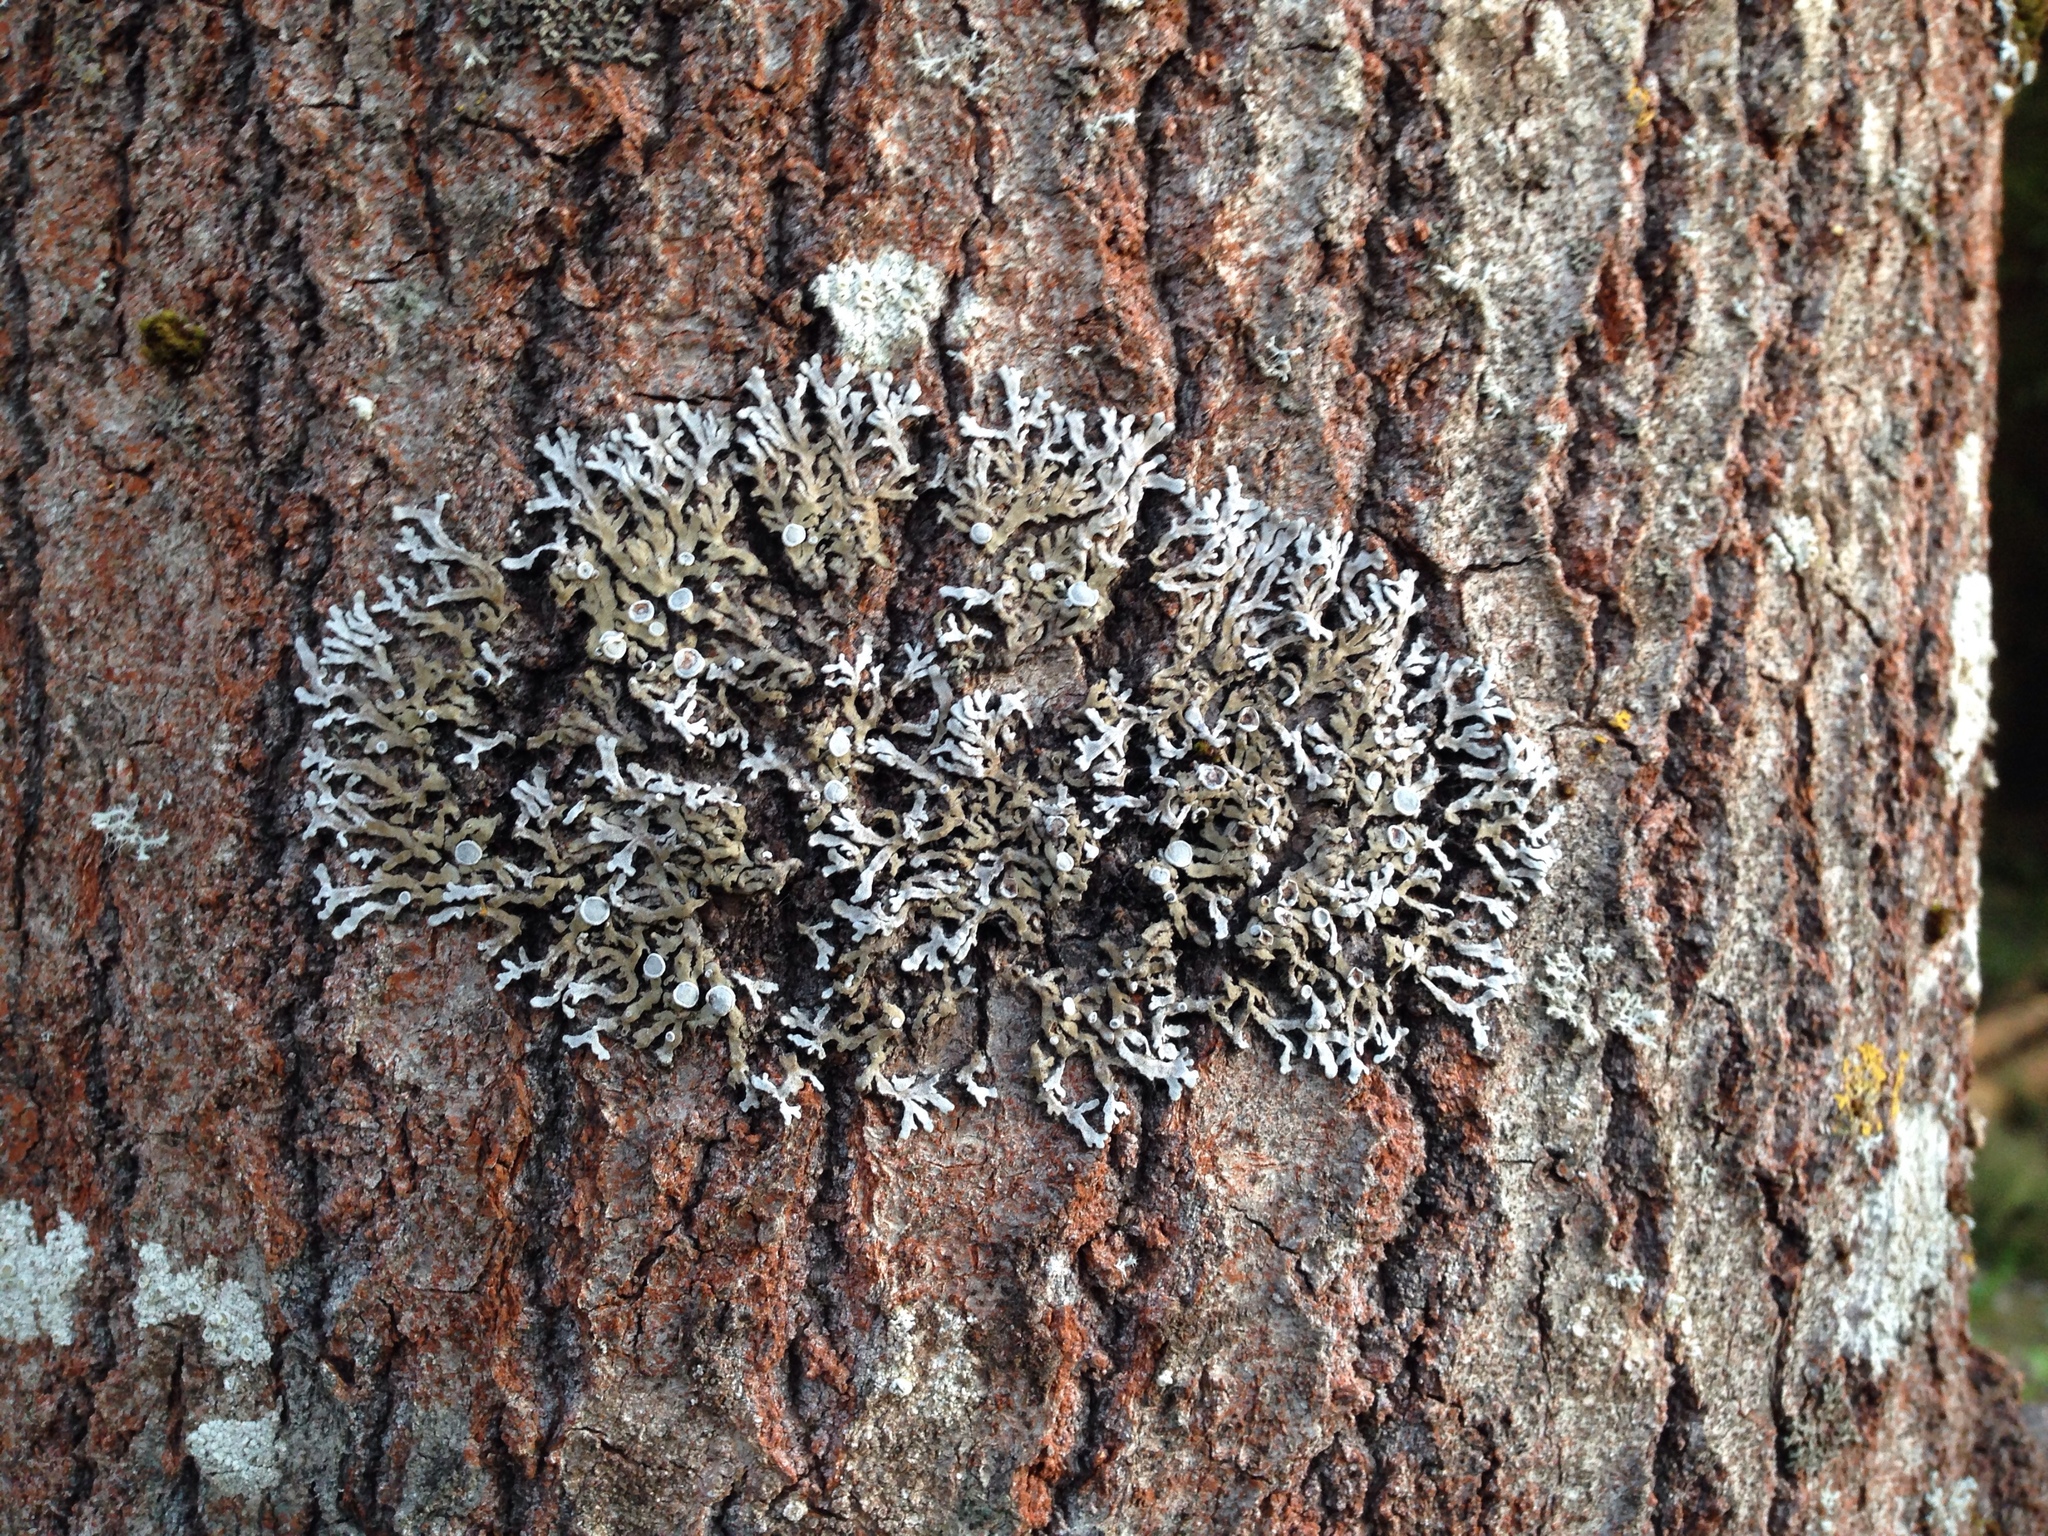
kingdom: Fungi
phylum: Ascomycota
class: Lecanoromycetes
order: Caliciales
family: Physciaceae
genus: Physconia
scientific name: Physconia pulverulenta
